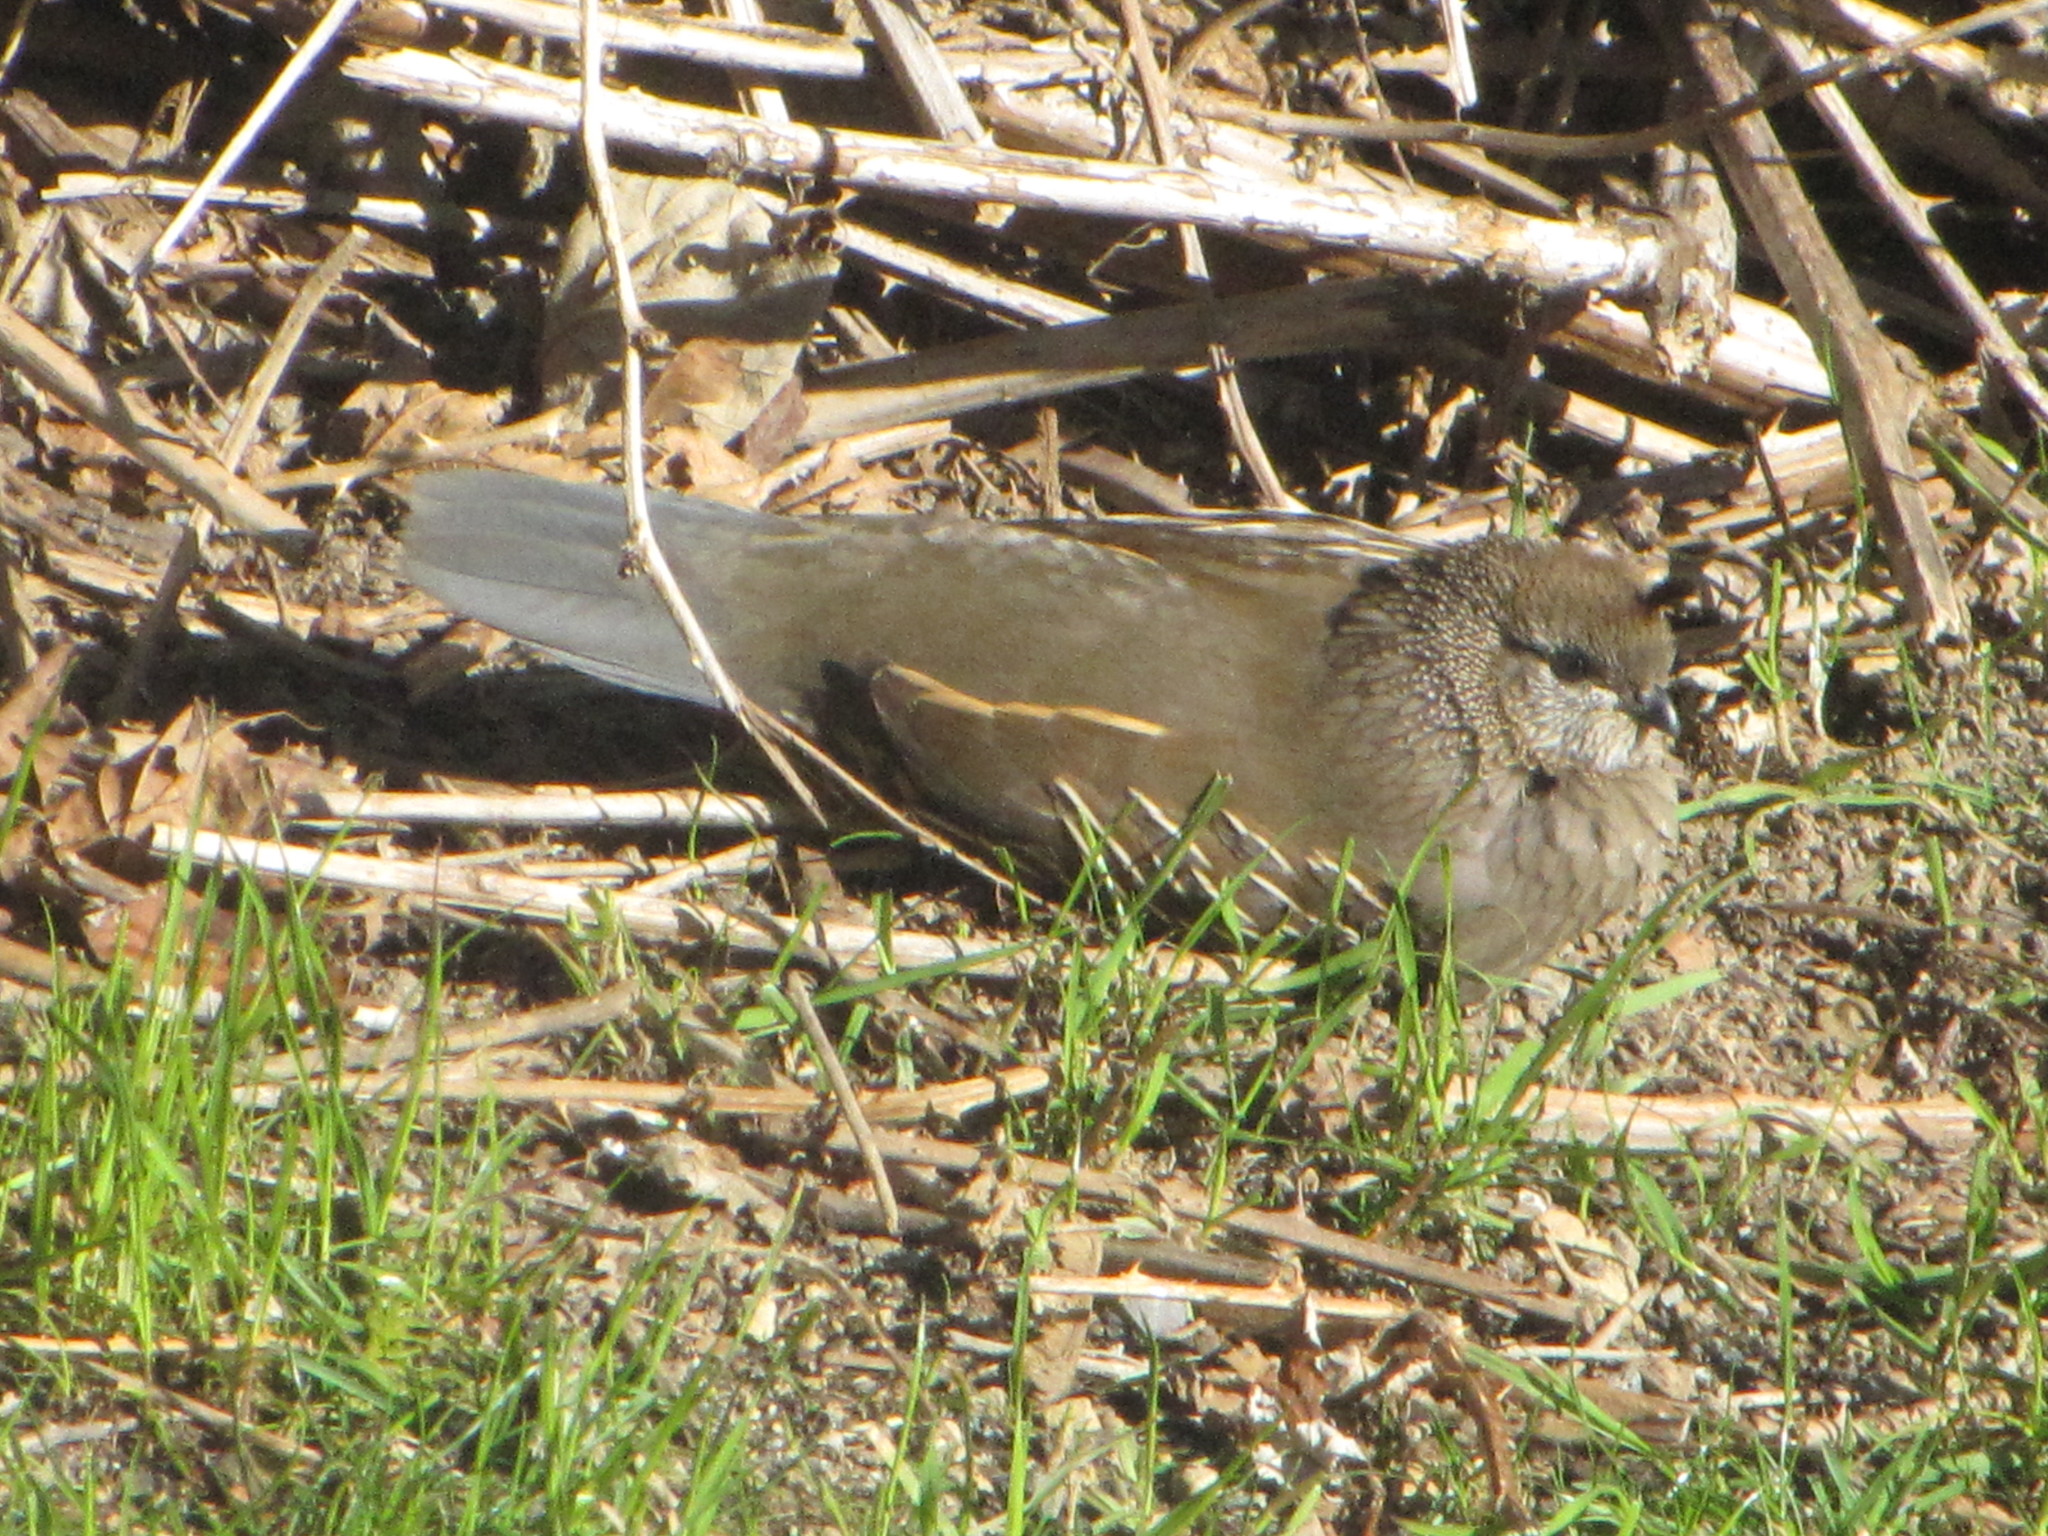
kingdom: Animalia
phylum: Chordata
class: Aves
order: Galliformes
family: Odontophoridae
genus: Callipepla
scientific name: Callipepla californica
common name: California quail
